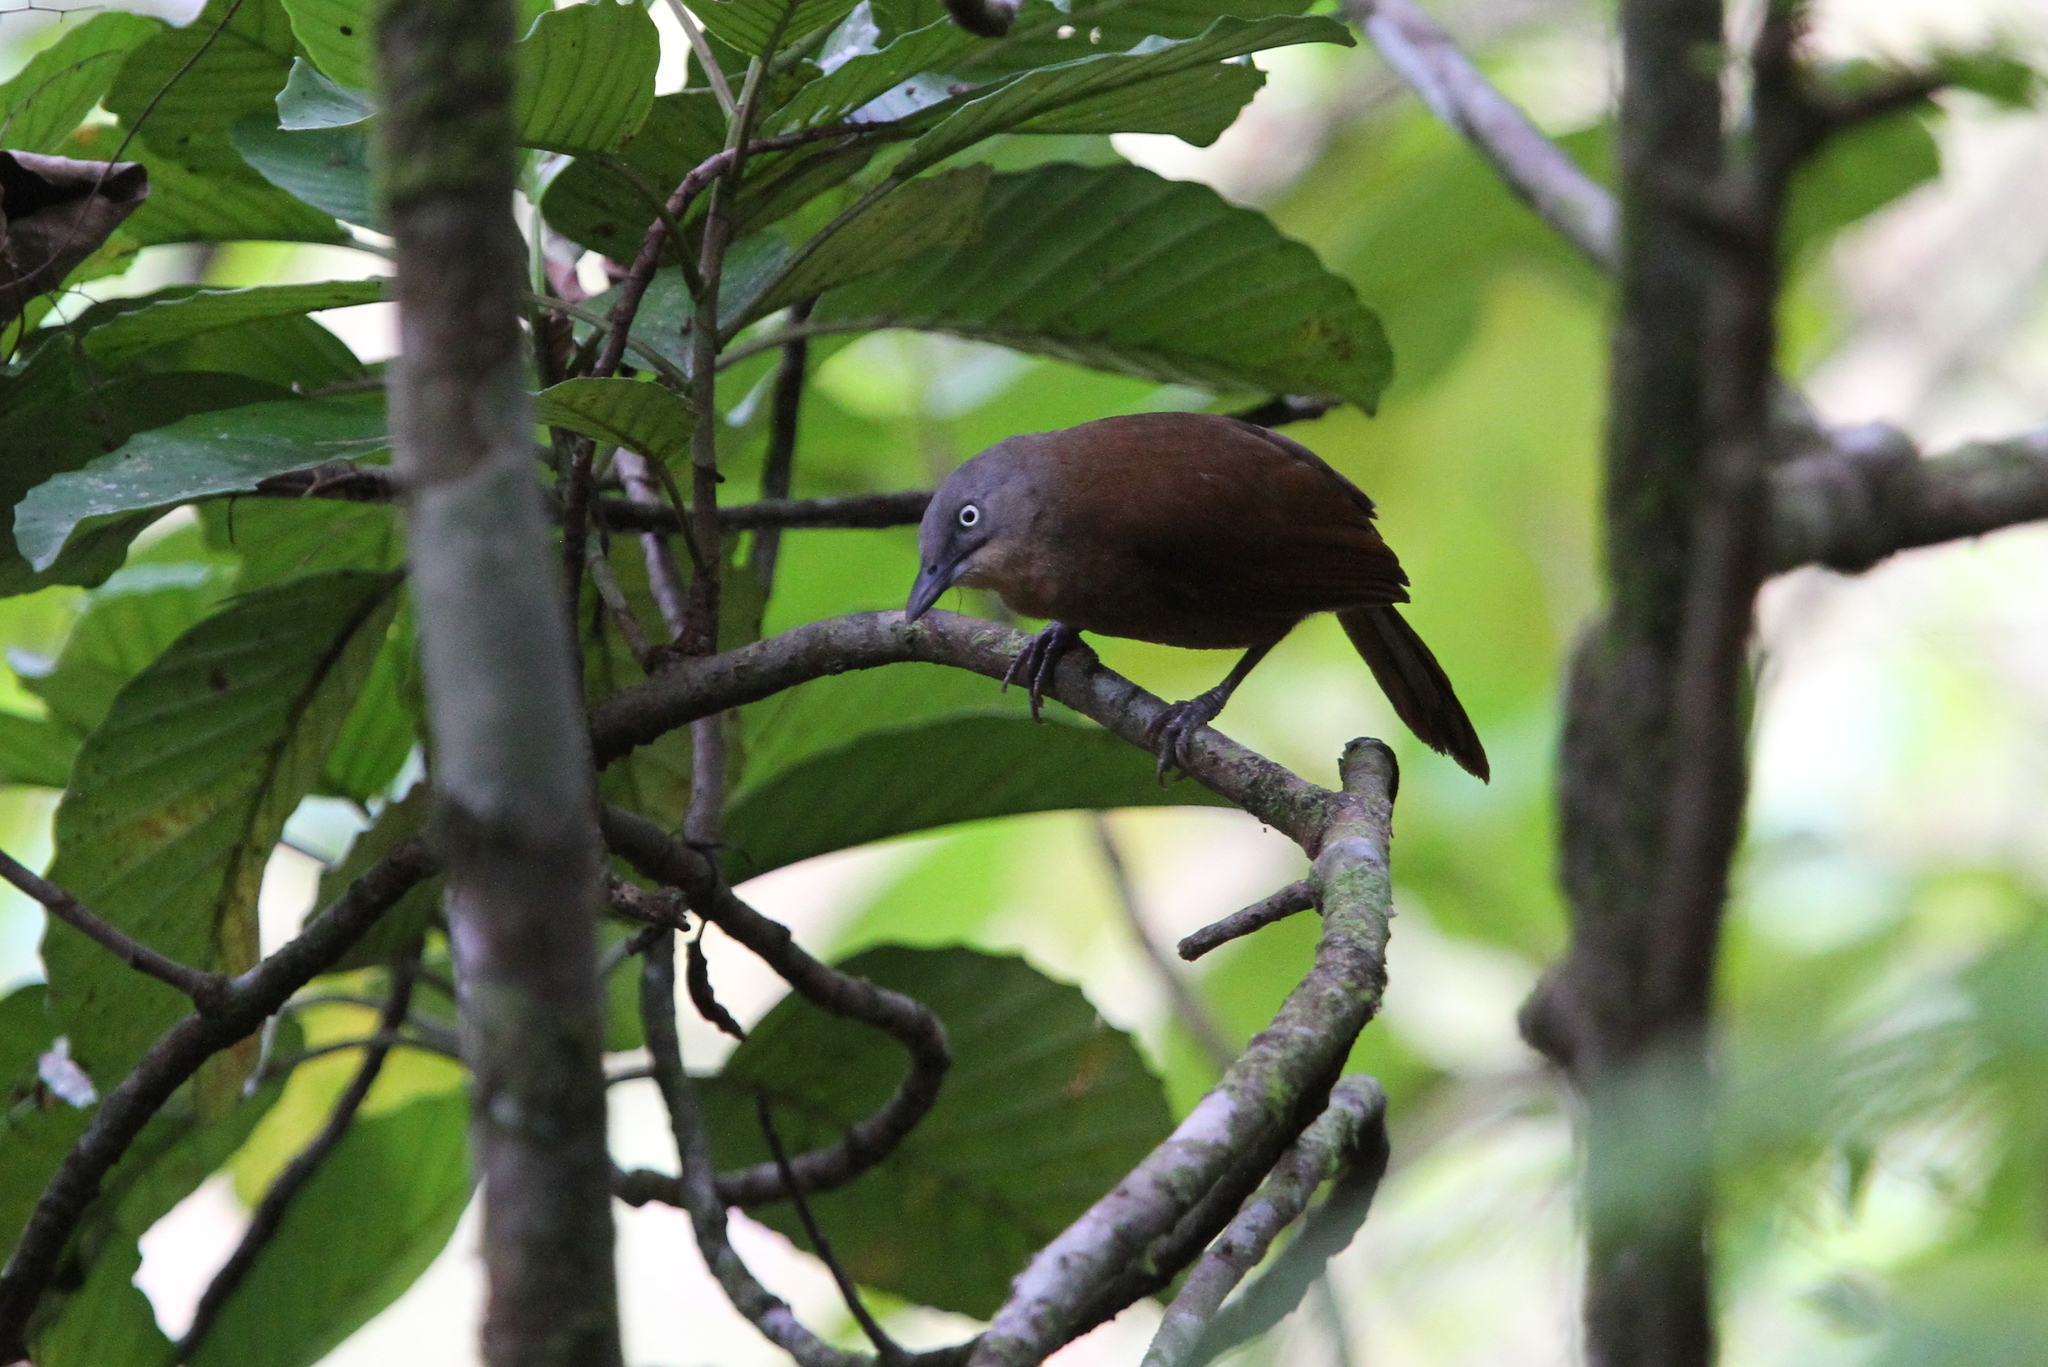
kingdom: Animalia
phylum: Chordata
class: Aves
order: Passeriformes
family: Leiothrichidae
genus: Garrulax
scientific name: Garrulax cinereifrons
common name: Ashy-headed laughingthrush
